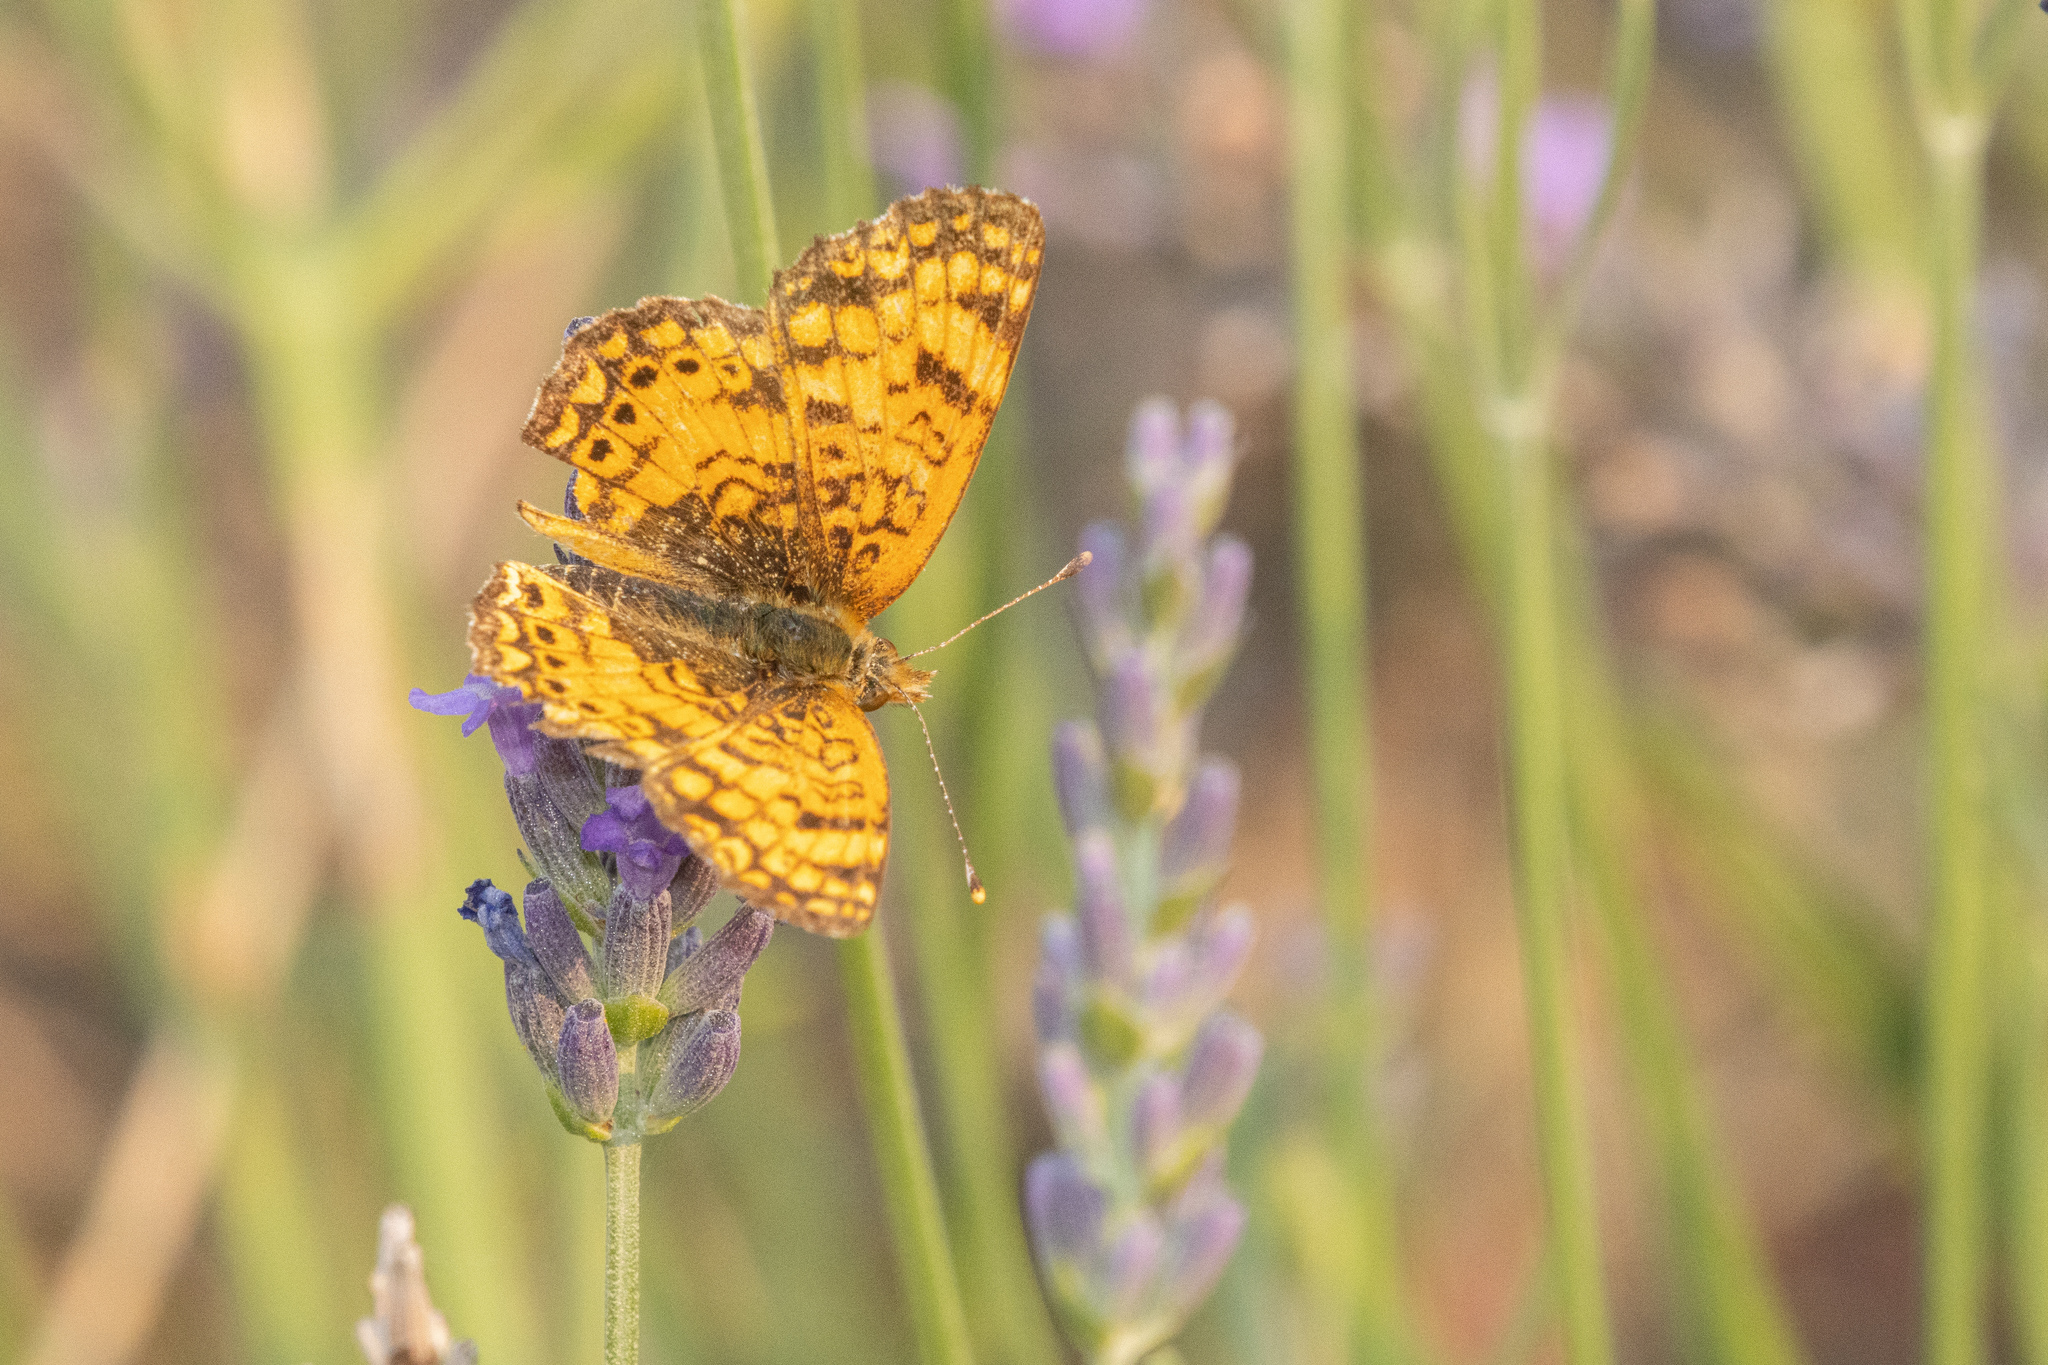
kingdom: Animalia
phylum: Arthropoda
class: Insecta
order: Lepidoptera
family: Nymphalidae
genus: Eresia
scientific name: Eresia aveyrona
